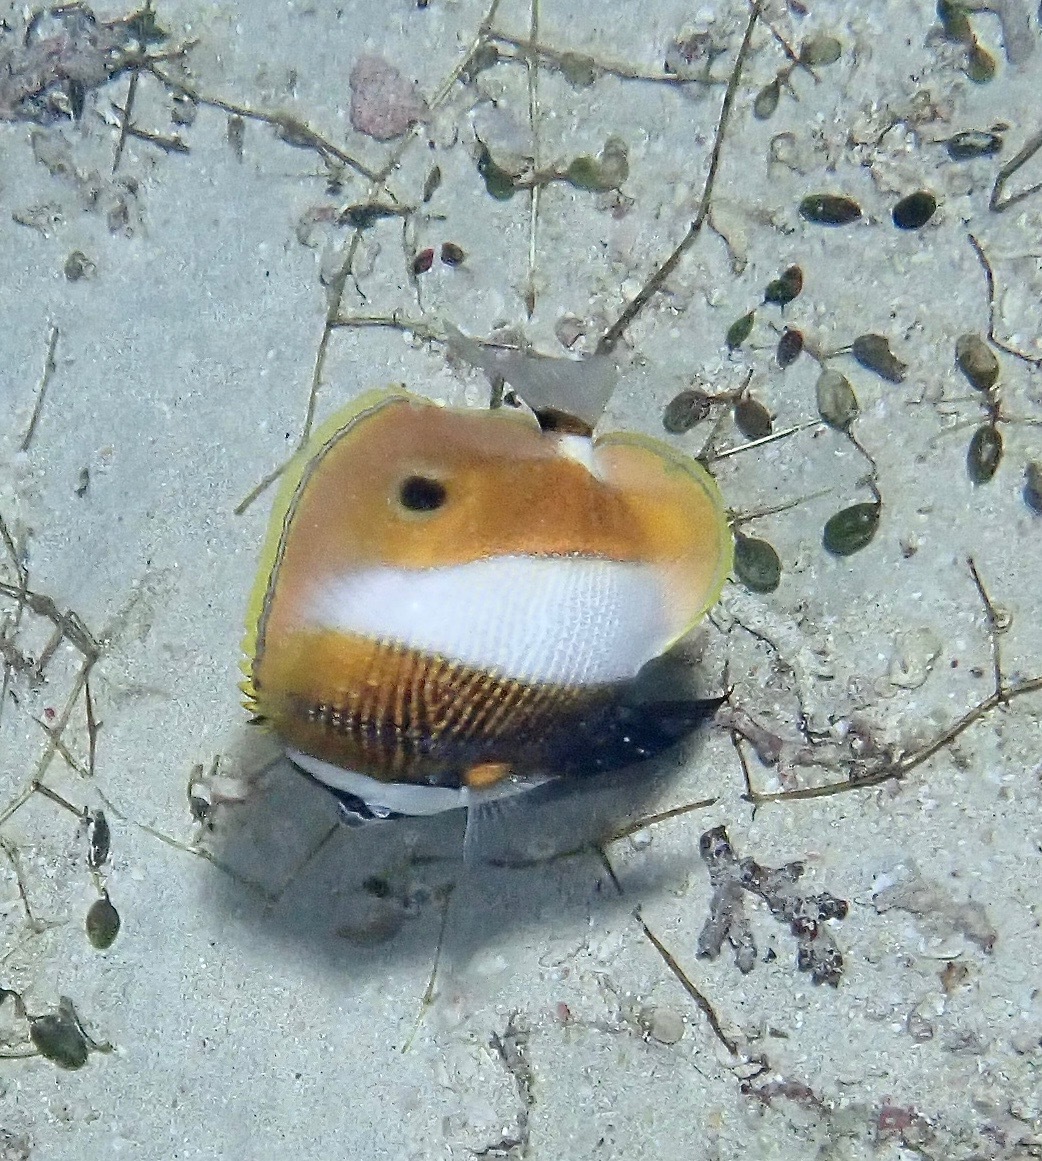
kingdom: Animalia
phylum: Chordata
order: Perciformes
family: Chaetodontidae
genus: Coradion
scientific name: Coradion chrysozonus
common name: Orange-banded coralfish
